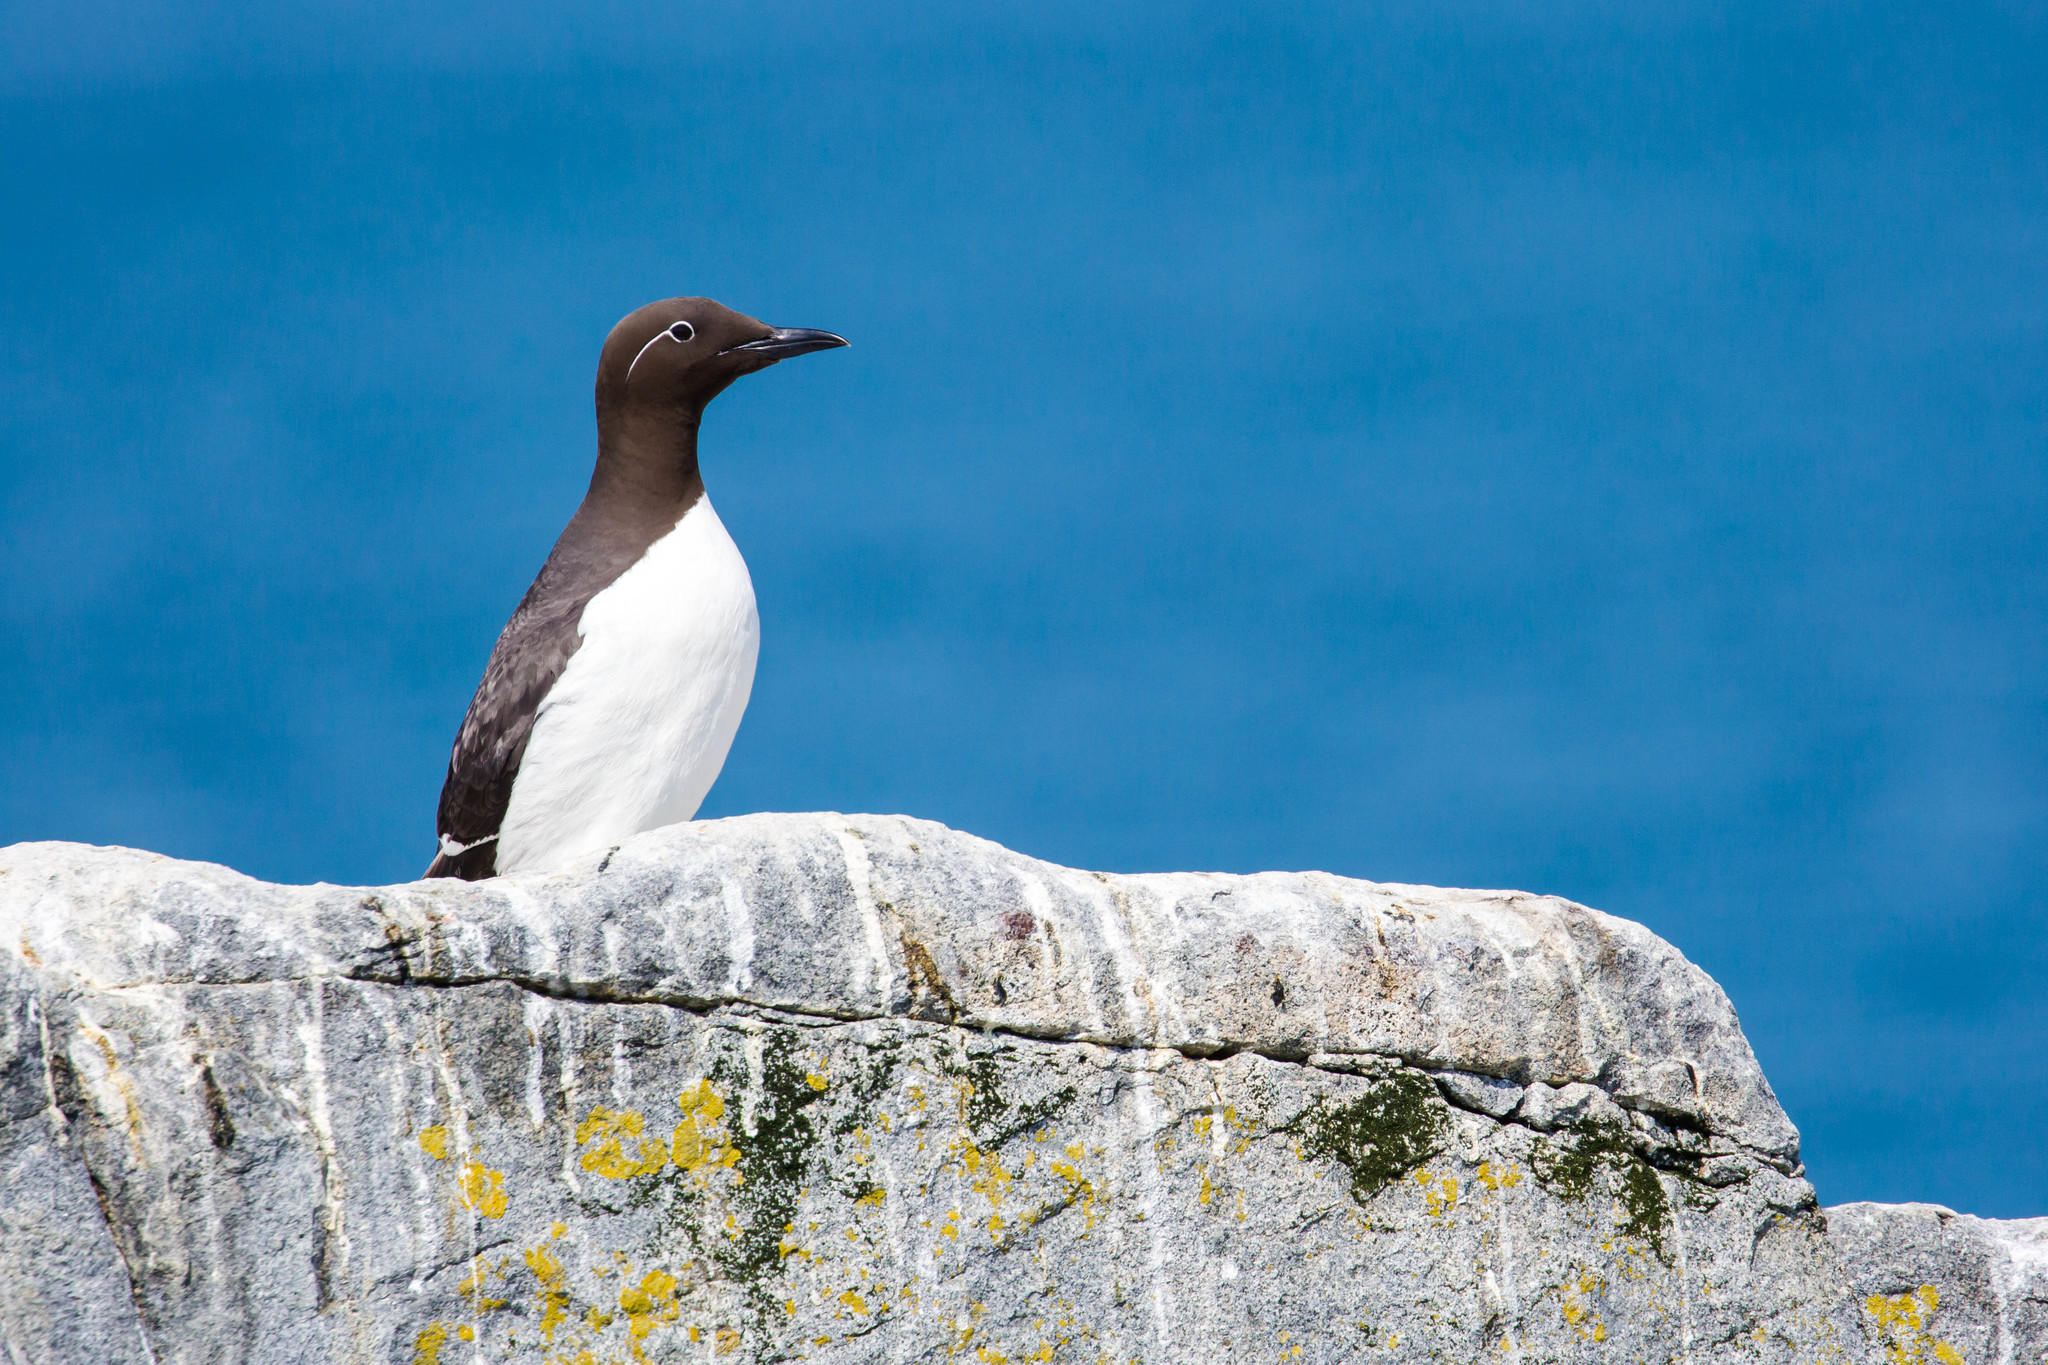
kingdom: Animalia
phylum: Chordata
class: Aves
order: Charadriiformes
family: Alcidae
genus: Uria
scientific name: Uria aalge
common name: Common murre
